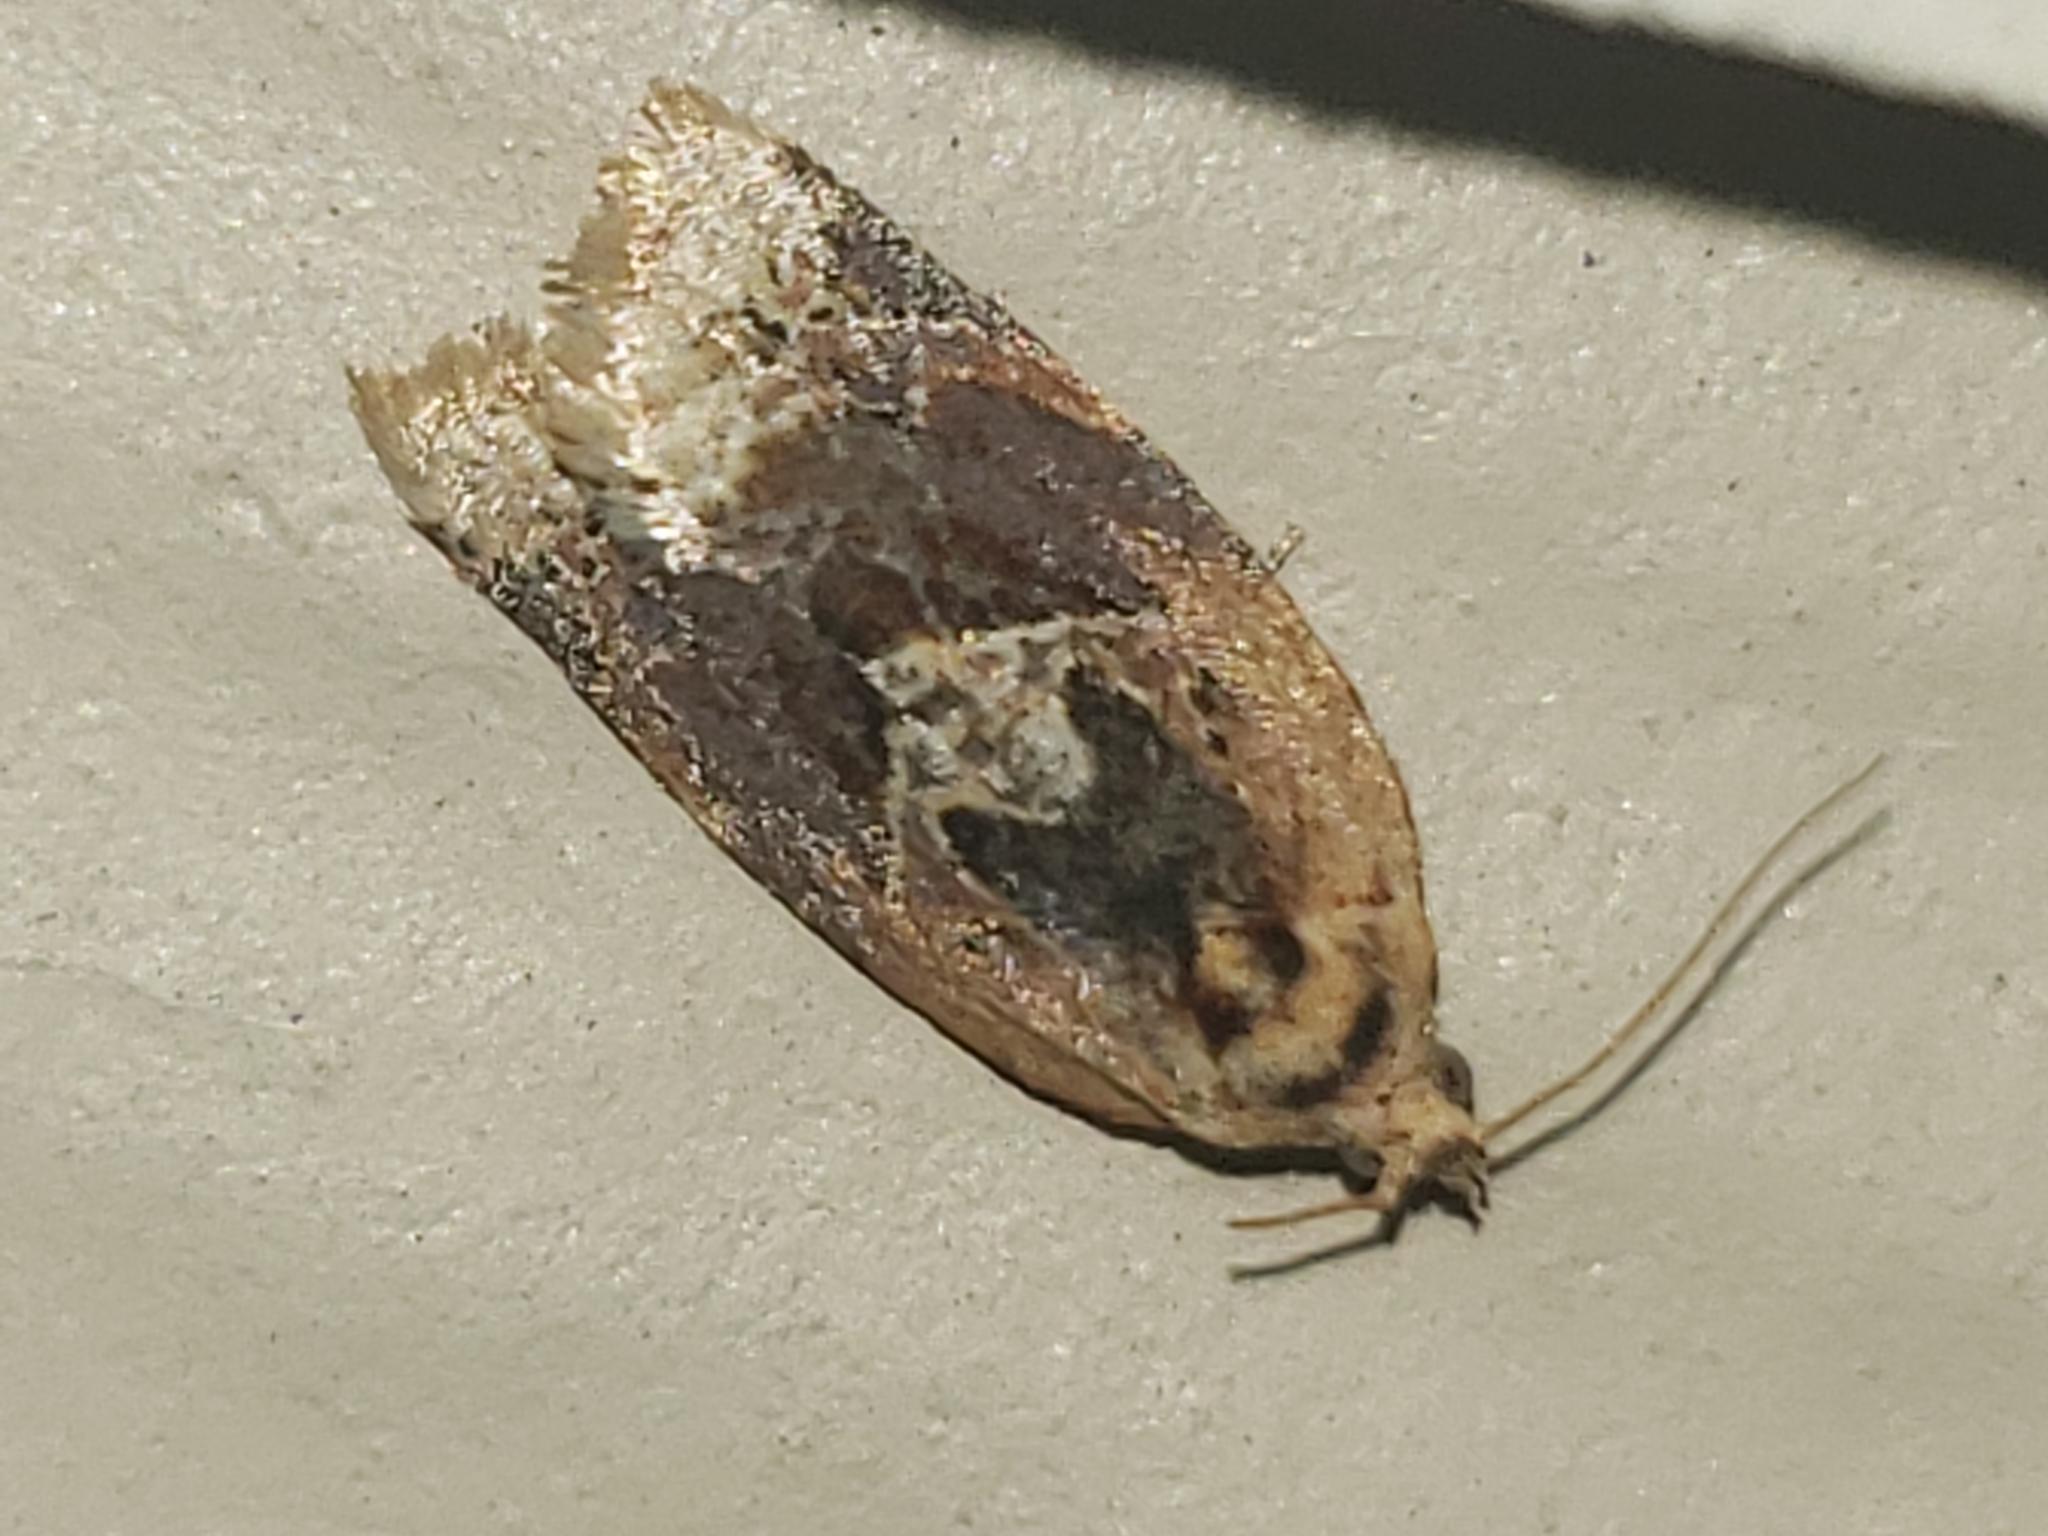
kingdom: Animalia
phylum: Arthropoda
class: Insecta
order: Lepidoptera
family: Tortricidae
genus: Argyrotaenia
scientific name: Argyrotaenia velutinana
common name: Red-banded leafroller moth
